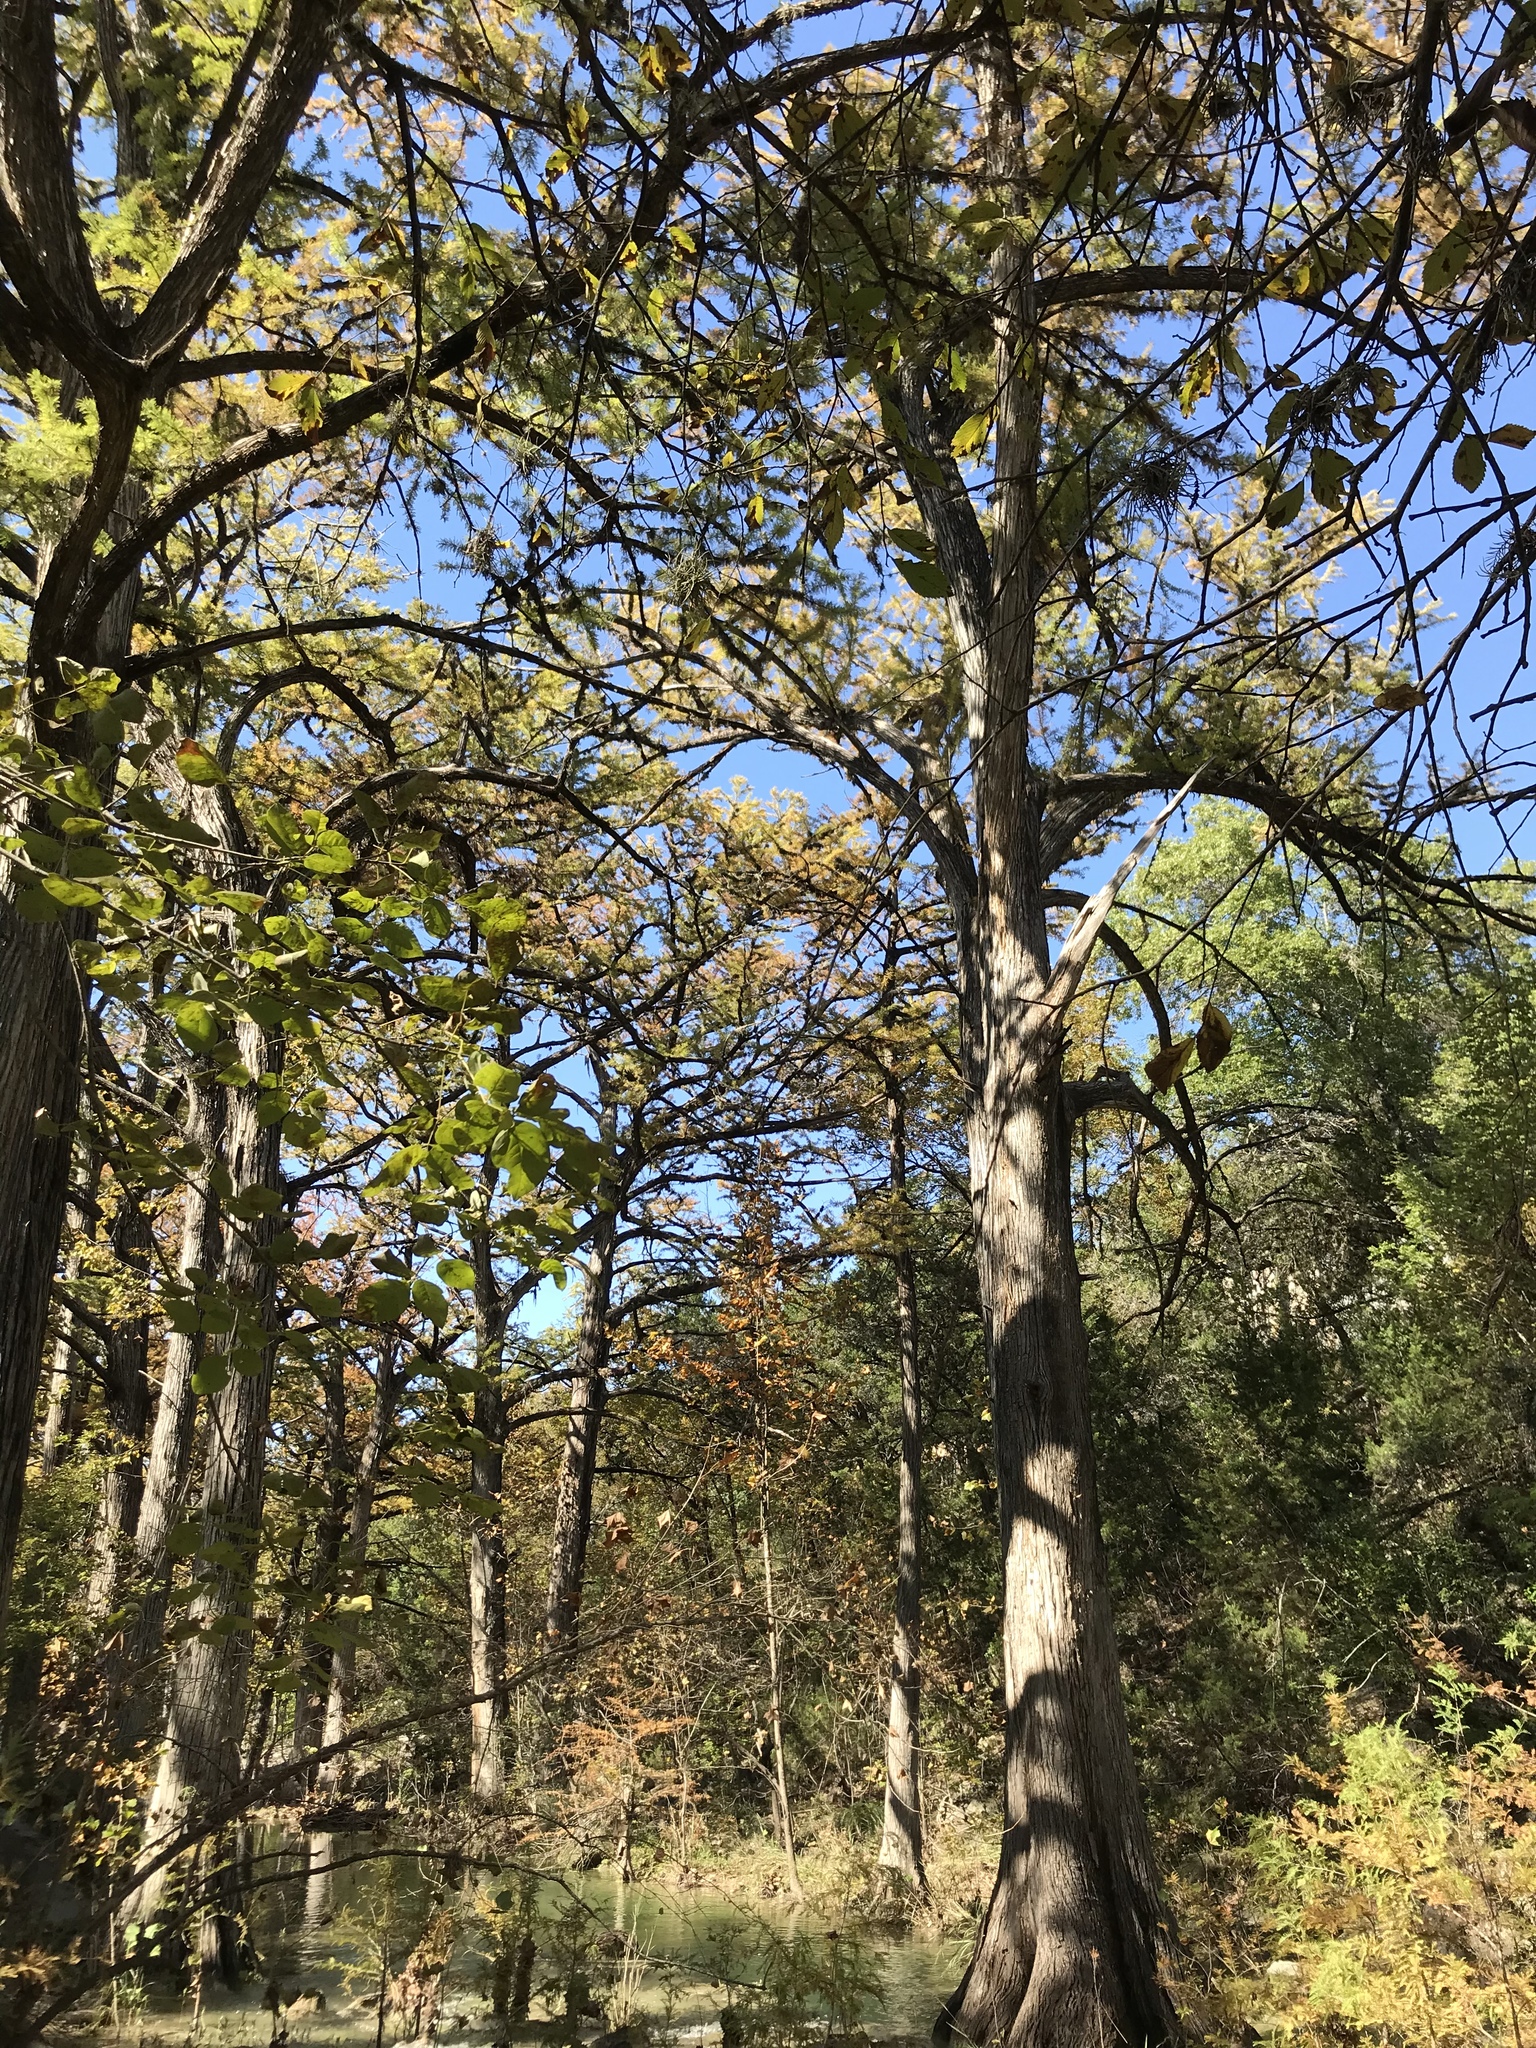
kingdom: Plantae
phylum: Tracheophyta
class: Pinopsida
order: Pinales
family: Cupressaceae
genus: Taxodium
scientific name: Taxodium distichum
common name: Bald cypress
